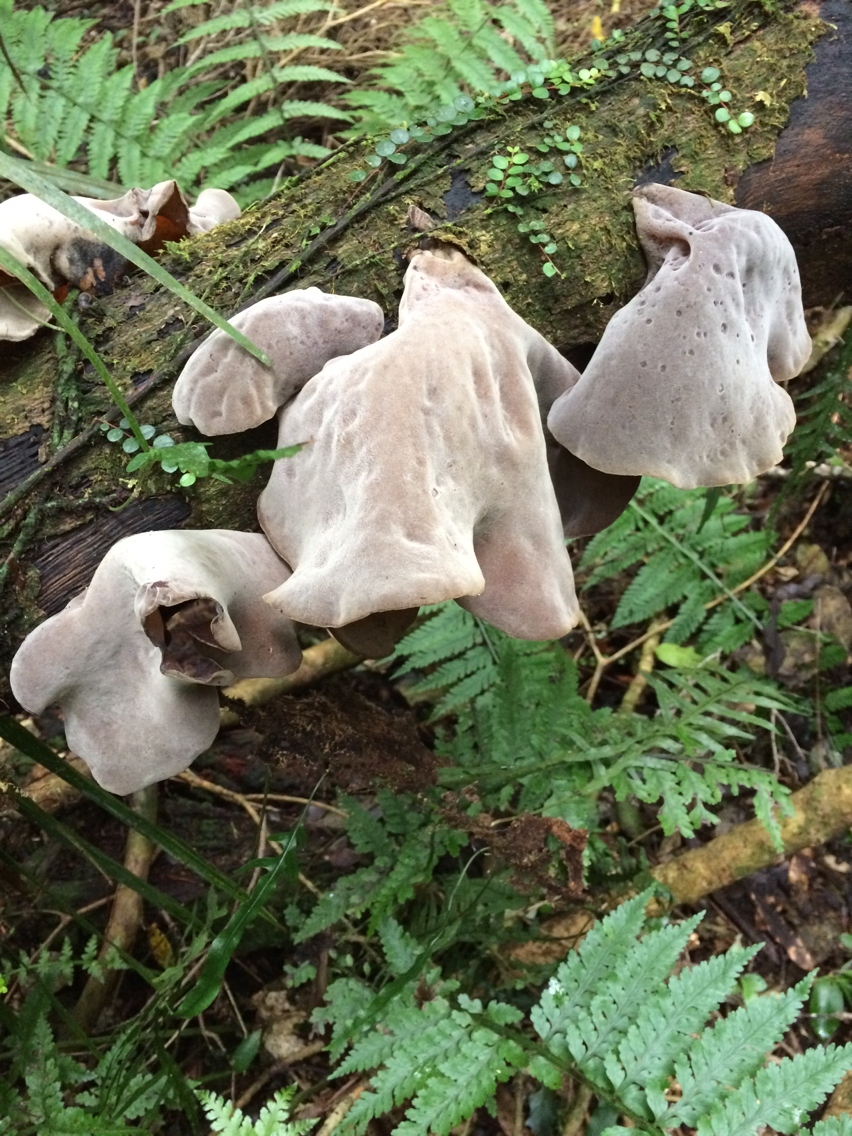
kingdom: Fungi
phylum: Basidiomycota
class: Agaricomycetes
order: Auriculariales
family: Auriculariaceae
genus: Auricularia
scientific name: Auricularia cornea
